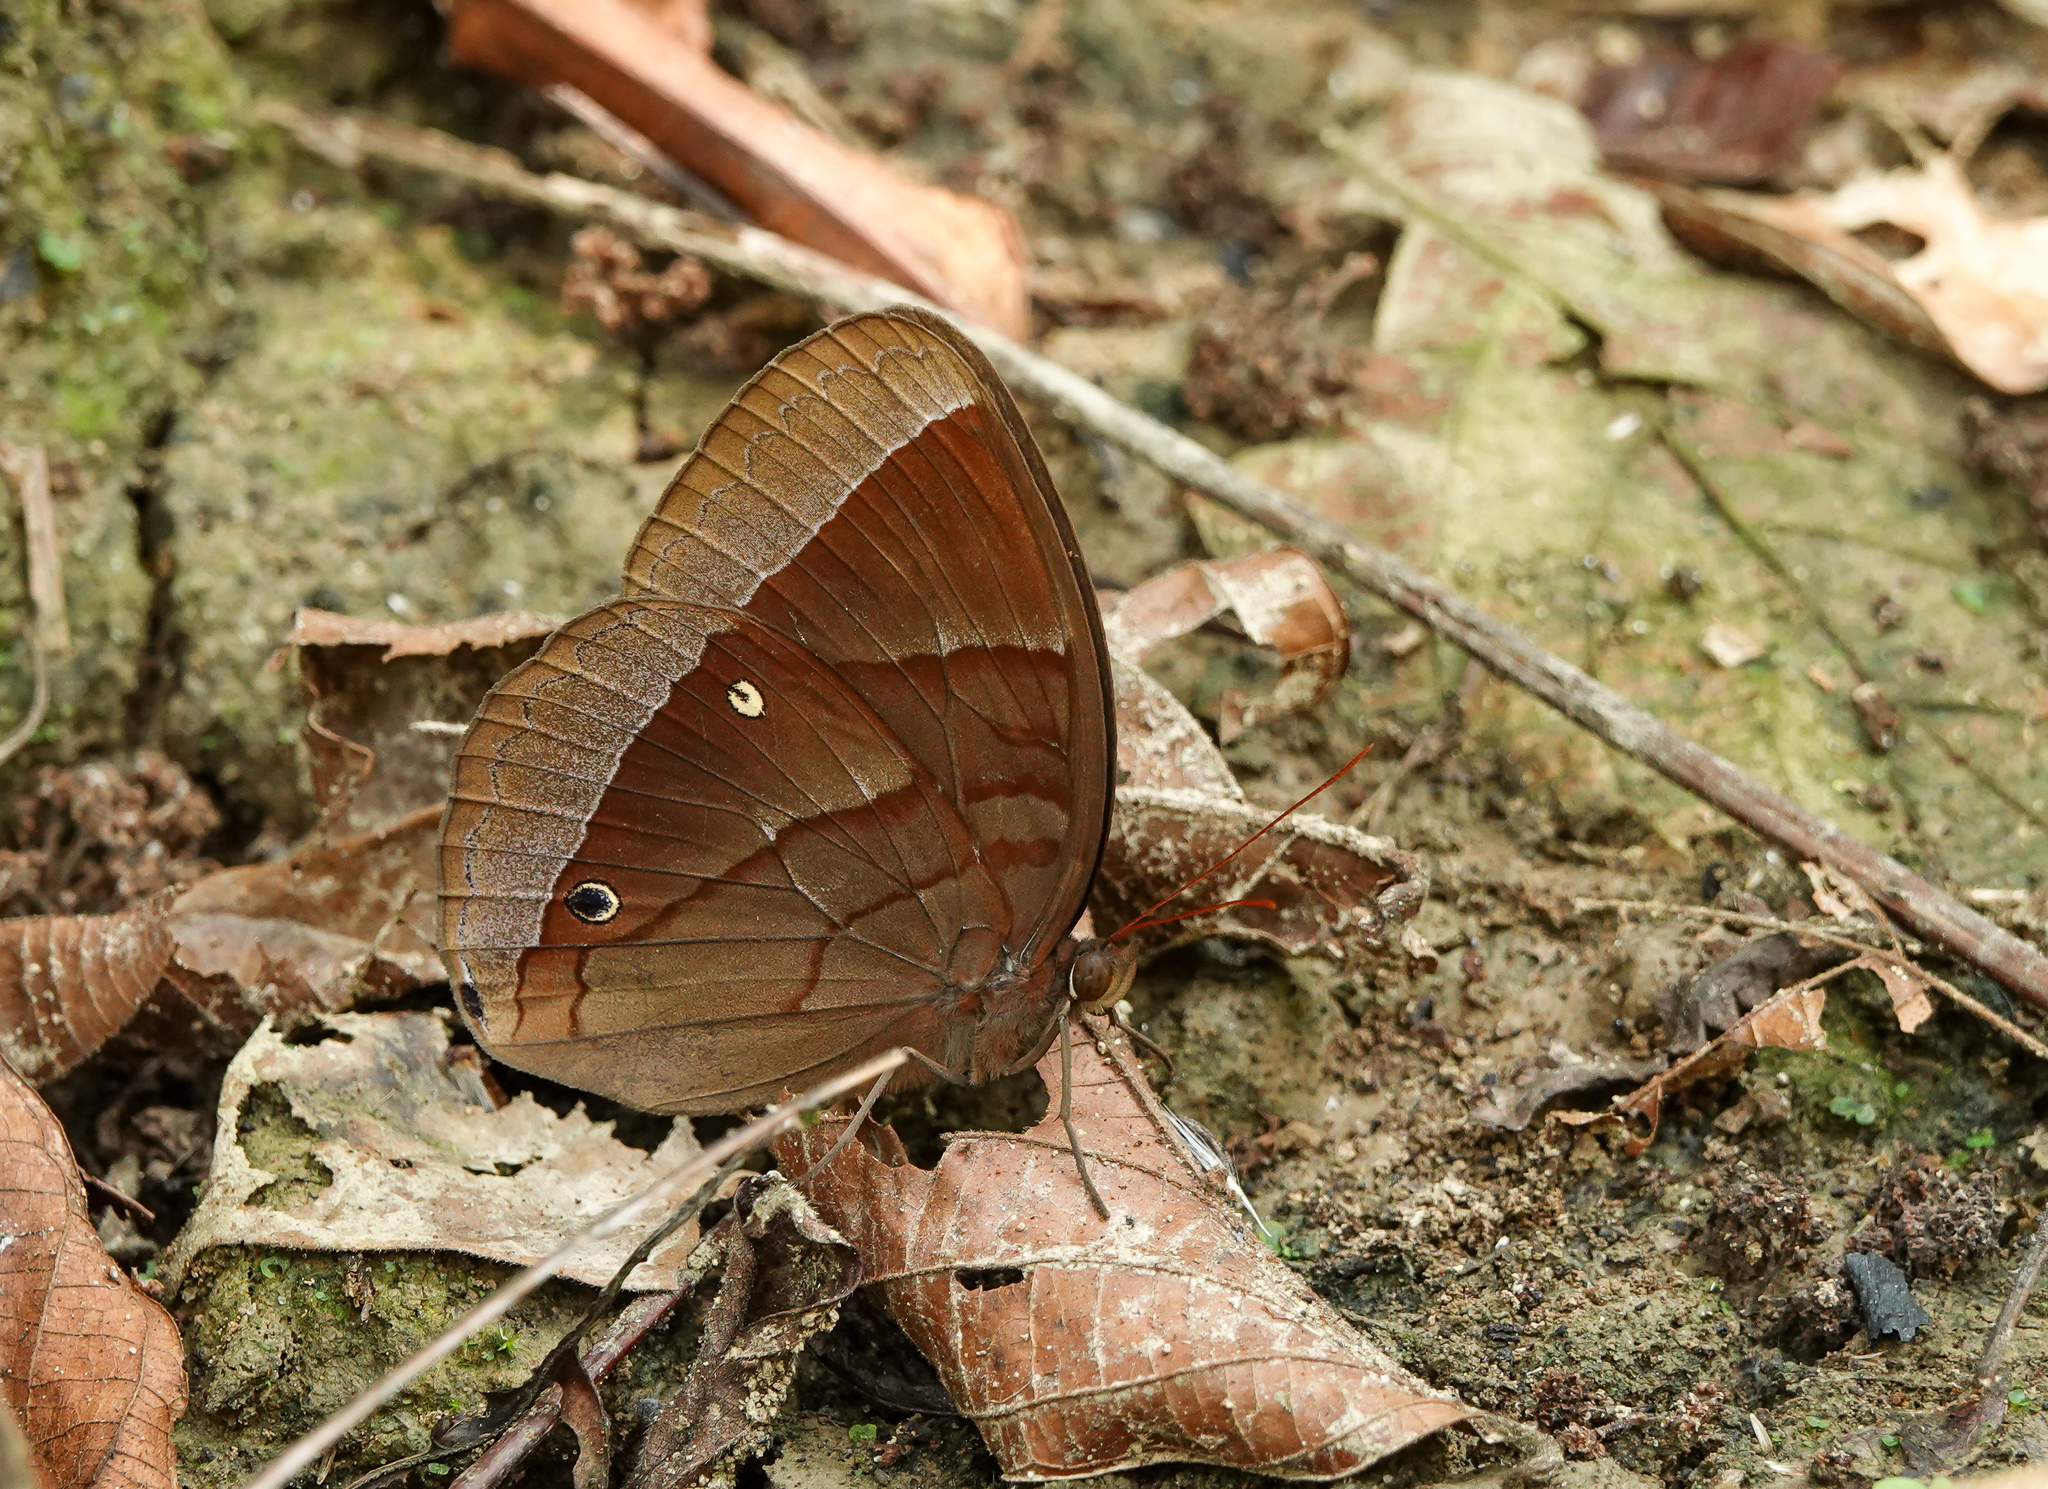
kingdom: Animalia
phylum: Arthropoda
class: Insecta
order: Lepidoptera
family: Nymphalidae
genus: Thaumantis
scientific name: Thaumantis diores
